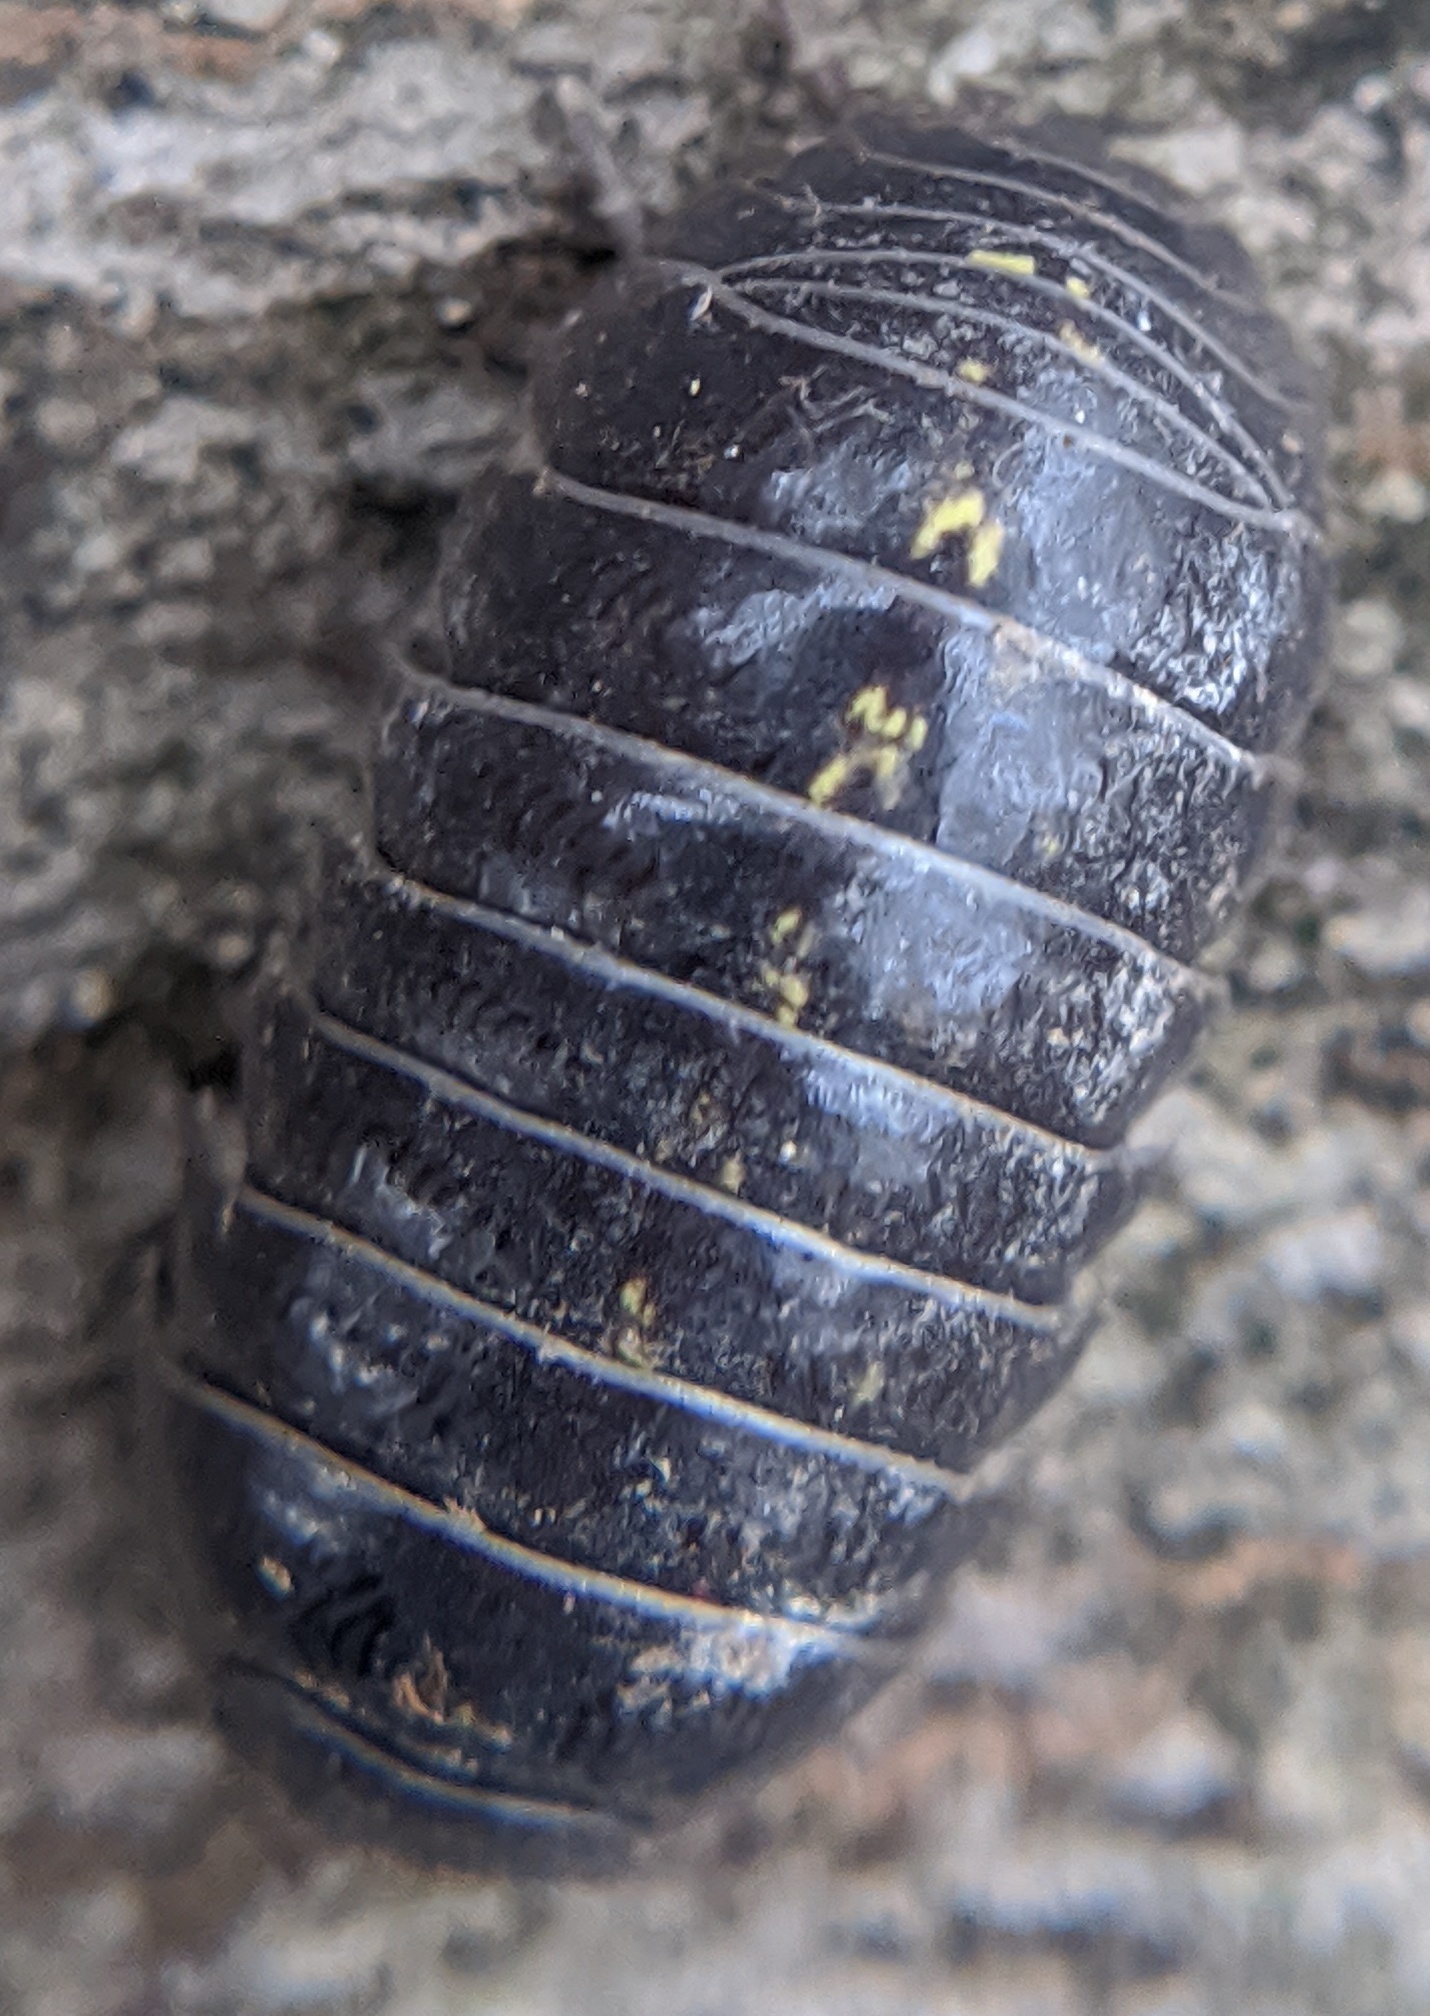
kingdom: Animalia
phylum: Arthropoda
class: Malacostraca
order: Isopoda
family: Armadillidiidae
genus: Armadillidium
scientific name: Armadillidium vulgare
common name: Common pill woodlouse
